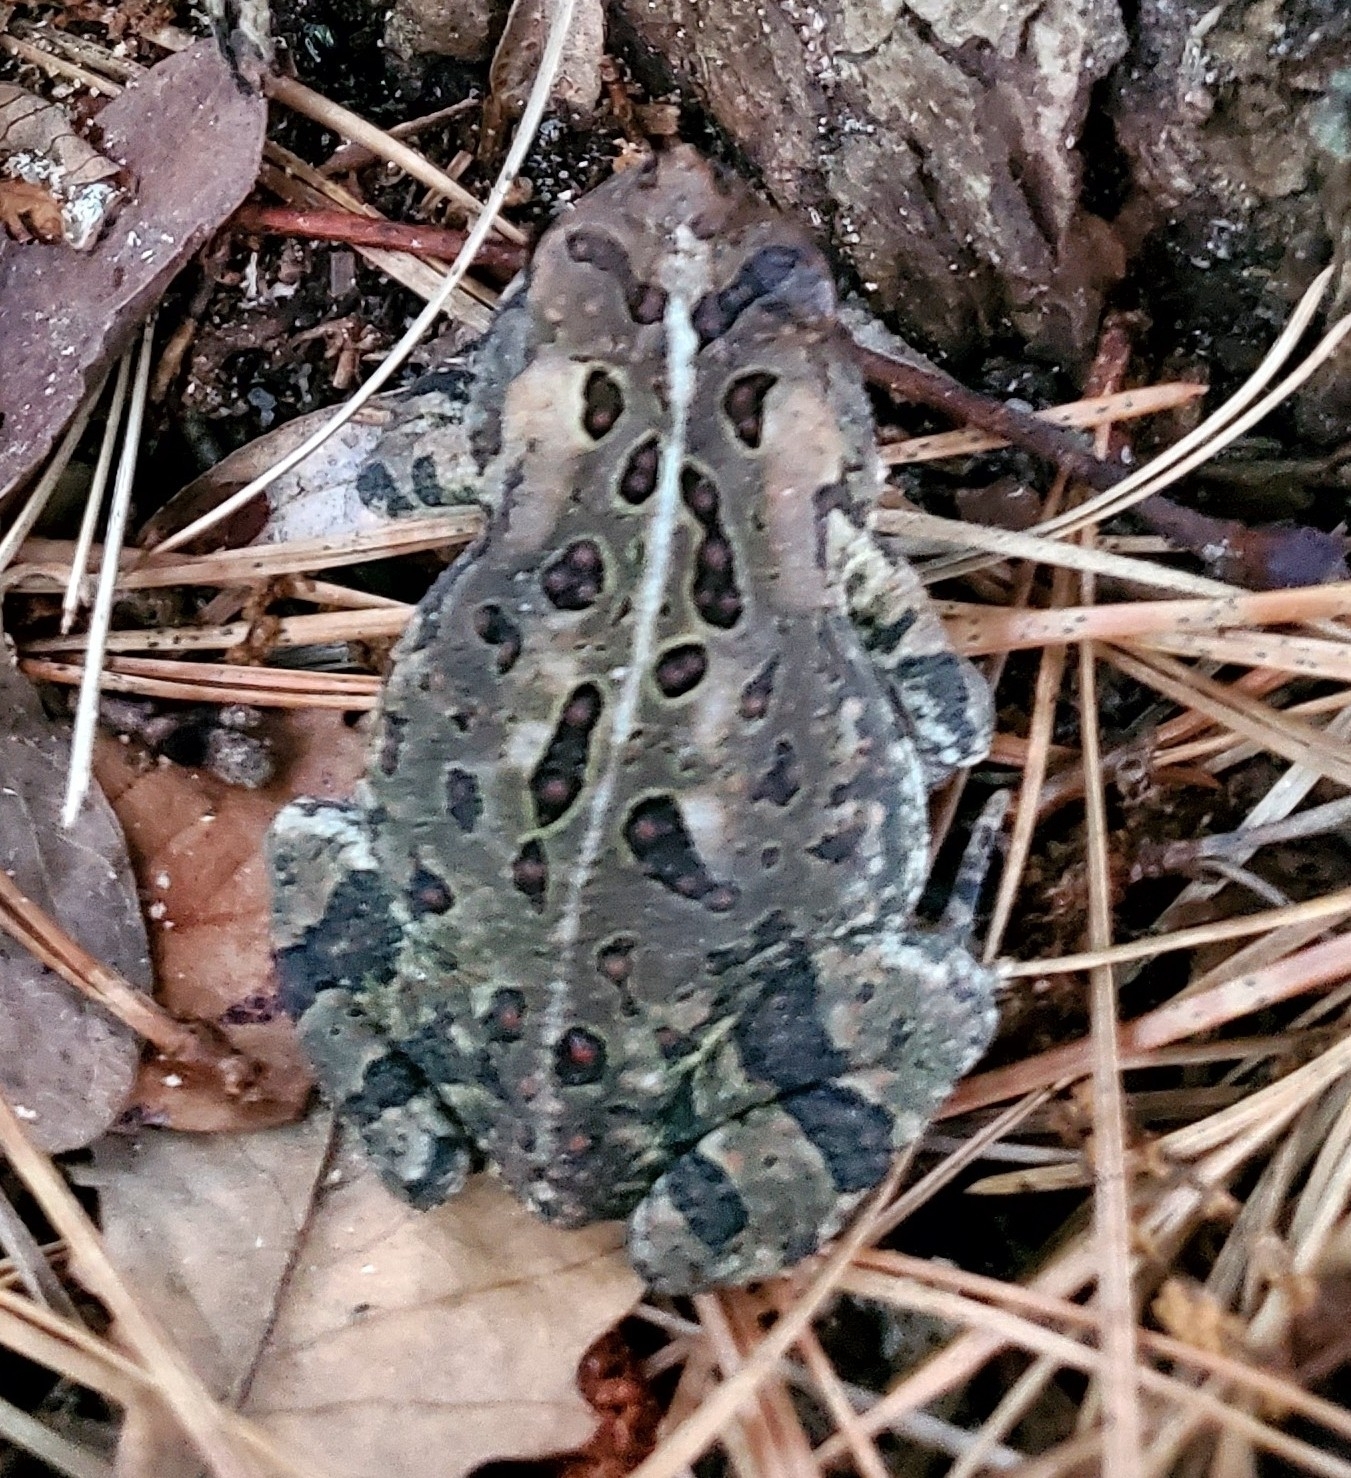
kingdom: Animalia
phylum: Chordata
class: Amphibia
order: Anura
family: Bufonidae
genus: Anaxyrus
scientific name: Anaxyrus fowleri
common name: Fowler's toad
